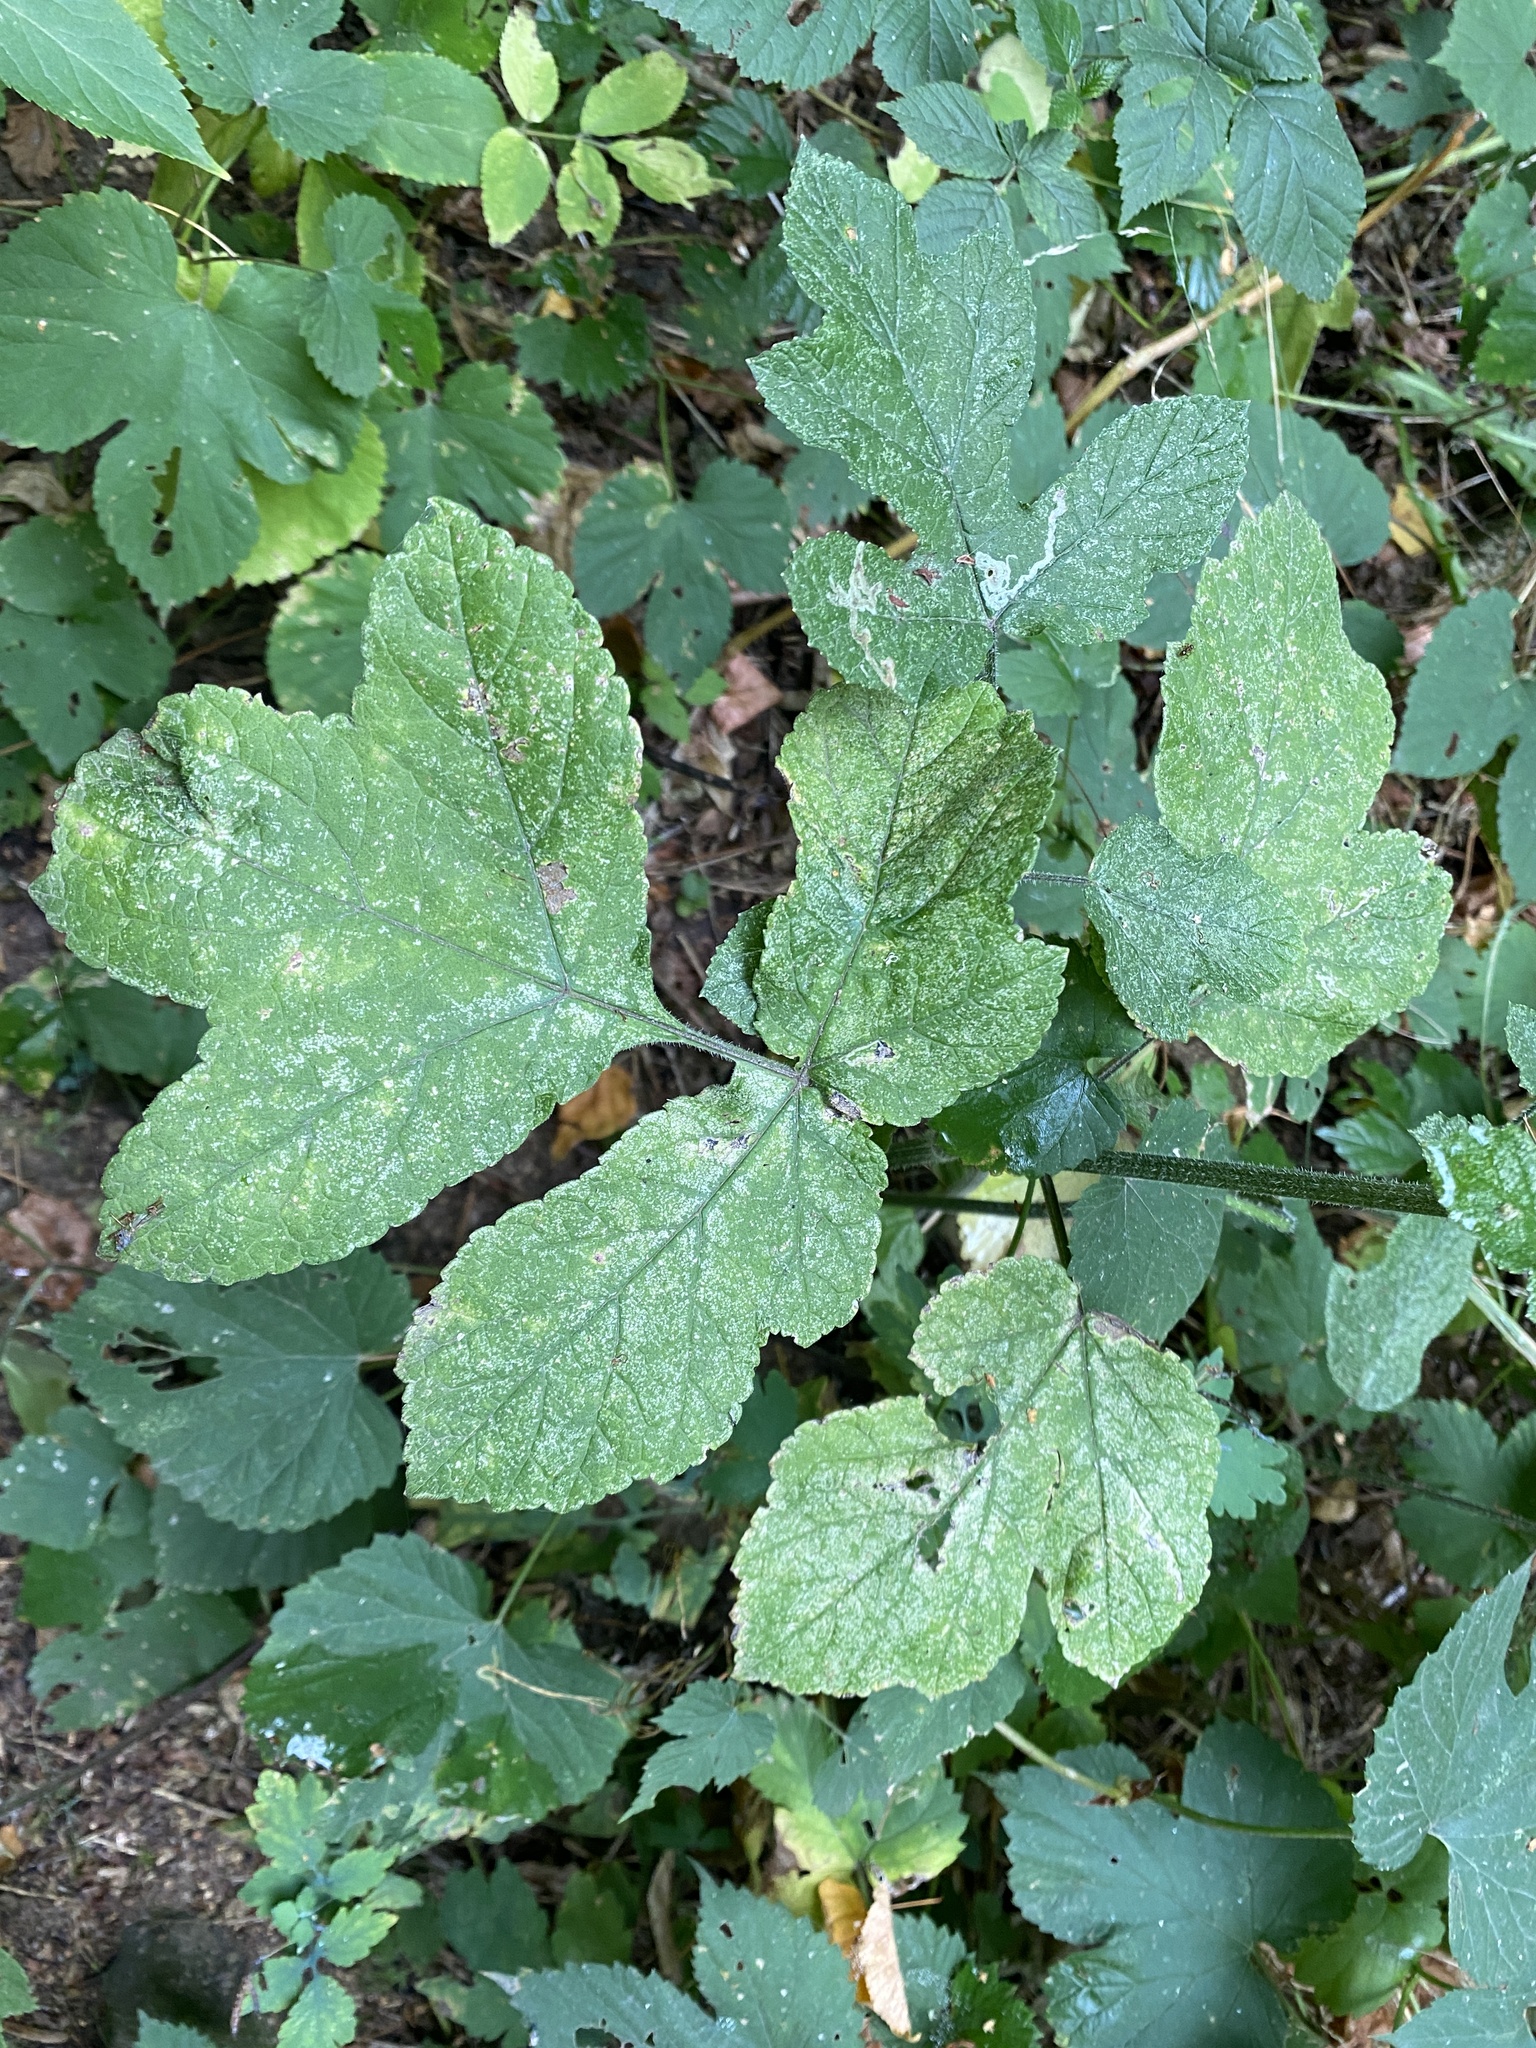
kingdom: Plantae
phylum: Tracheophyta
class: Magnoliopsida
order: Apiales
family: Apiaceae
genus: Heracleum
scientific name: Heracleum sphondylium
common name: Hogweed
